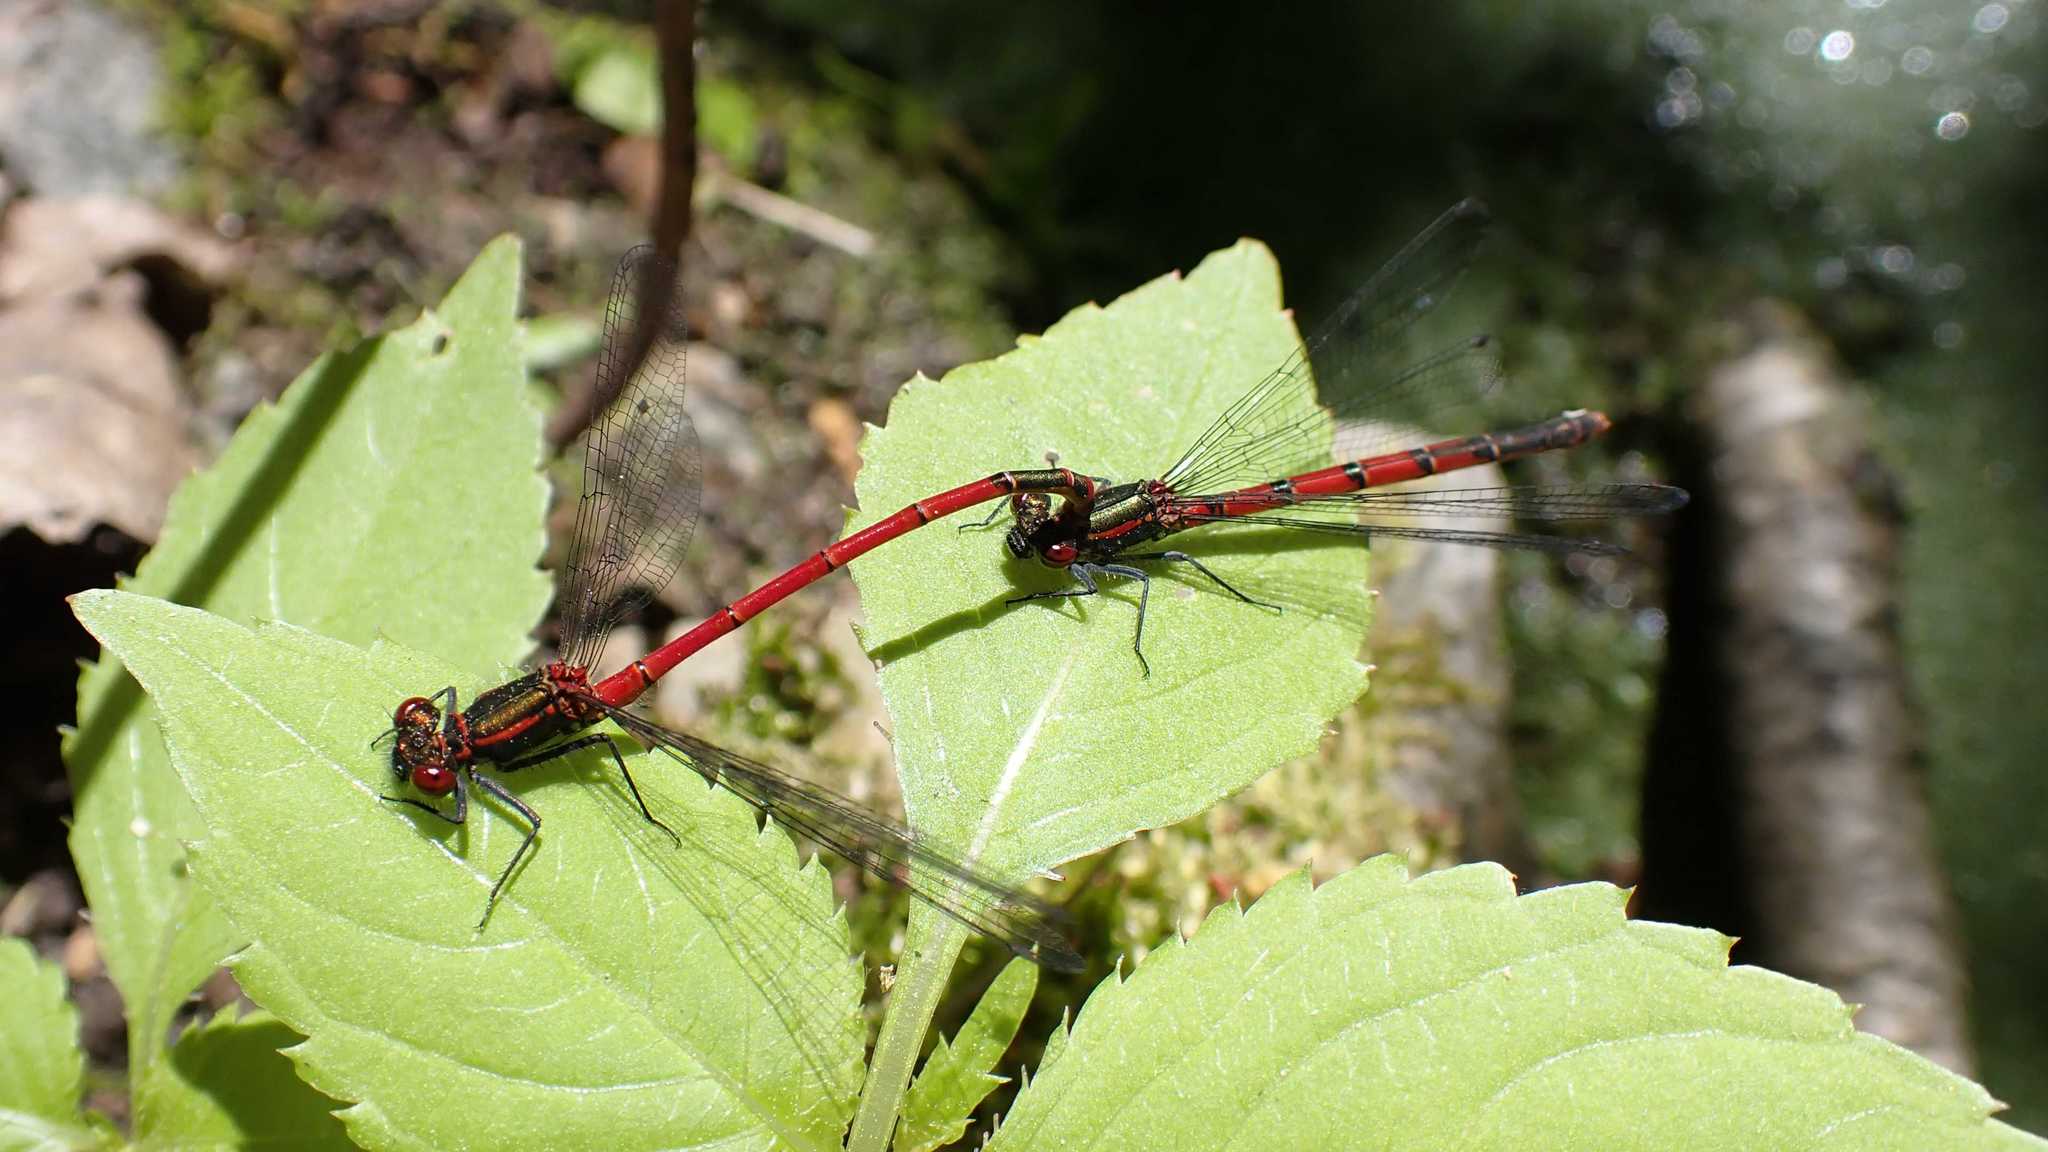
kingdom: Animalia
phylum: Arthropoda
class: Insecta
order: Odonata
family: Coenagrionidae
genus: Pyrrhosoma
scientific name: Pyrrhosoma nymphula
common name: Large red damsel
